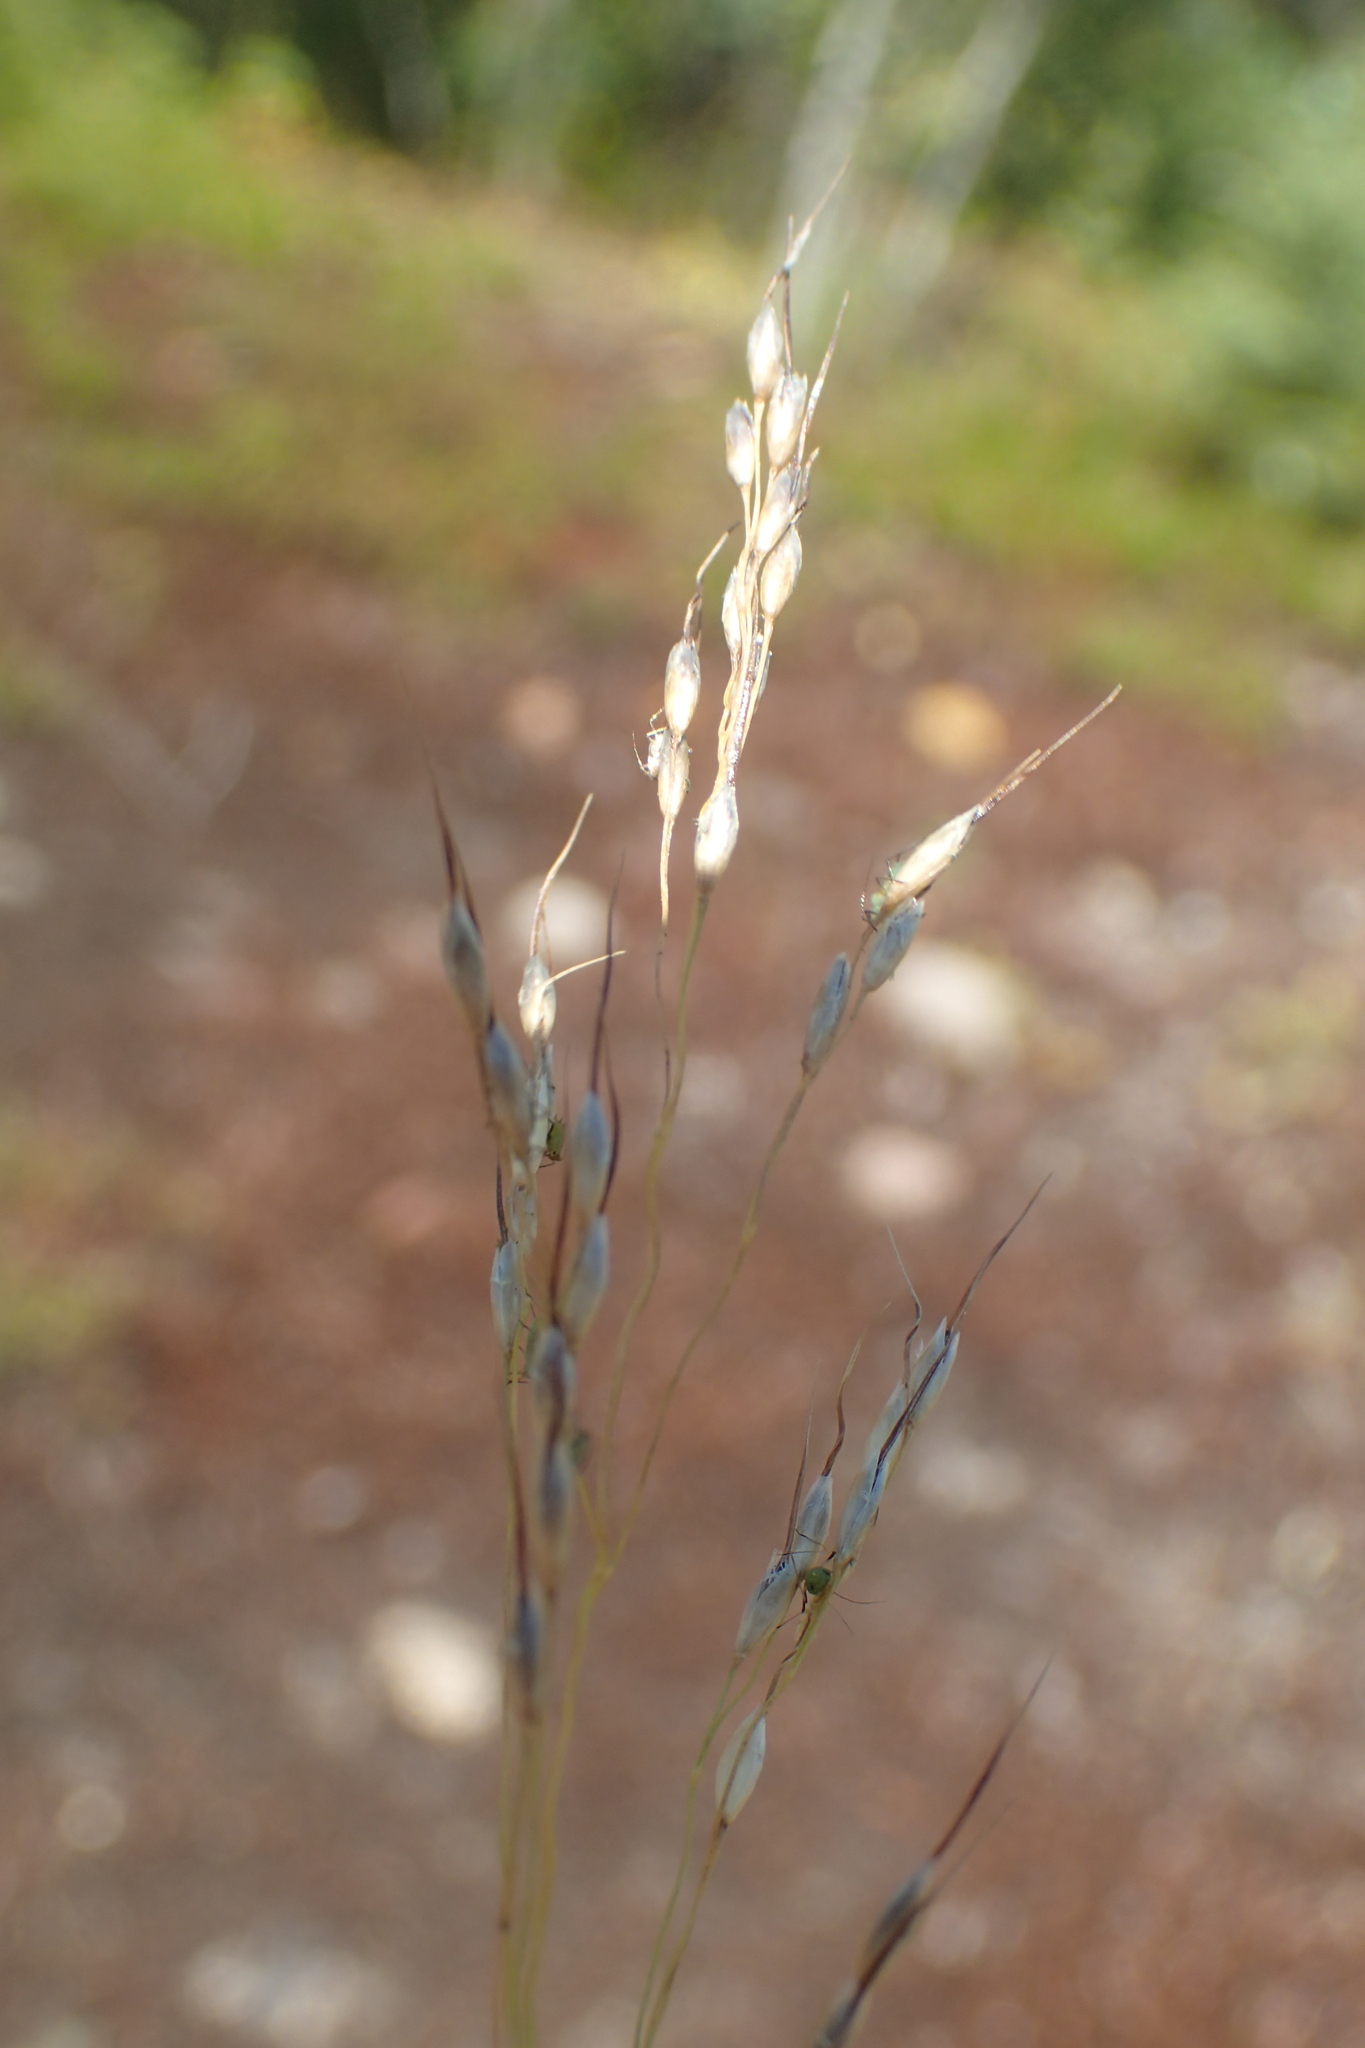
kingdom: Plantae
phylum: Tracheophyta
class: Liliopsida
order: Poales
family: Poaceae
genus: Piptatheropsis
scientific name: Piptatheropsis canadensis
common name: Canada mountain ricegrass
